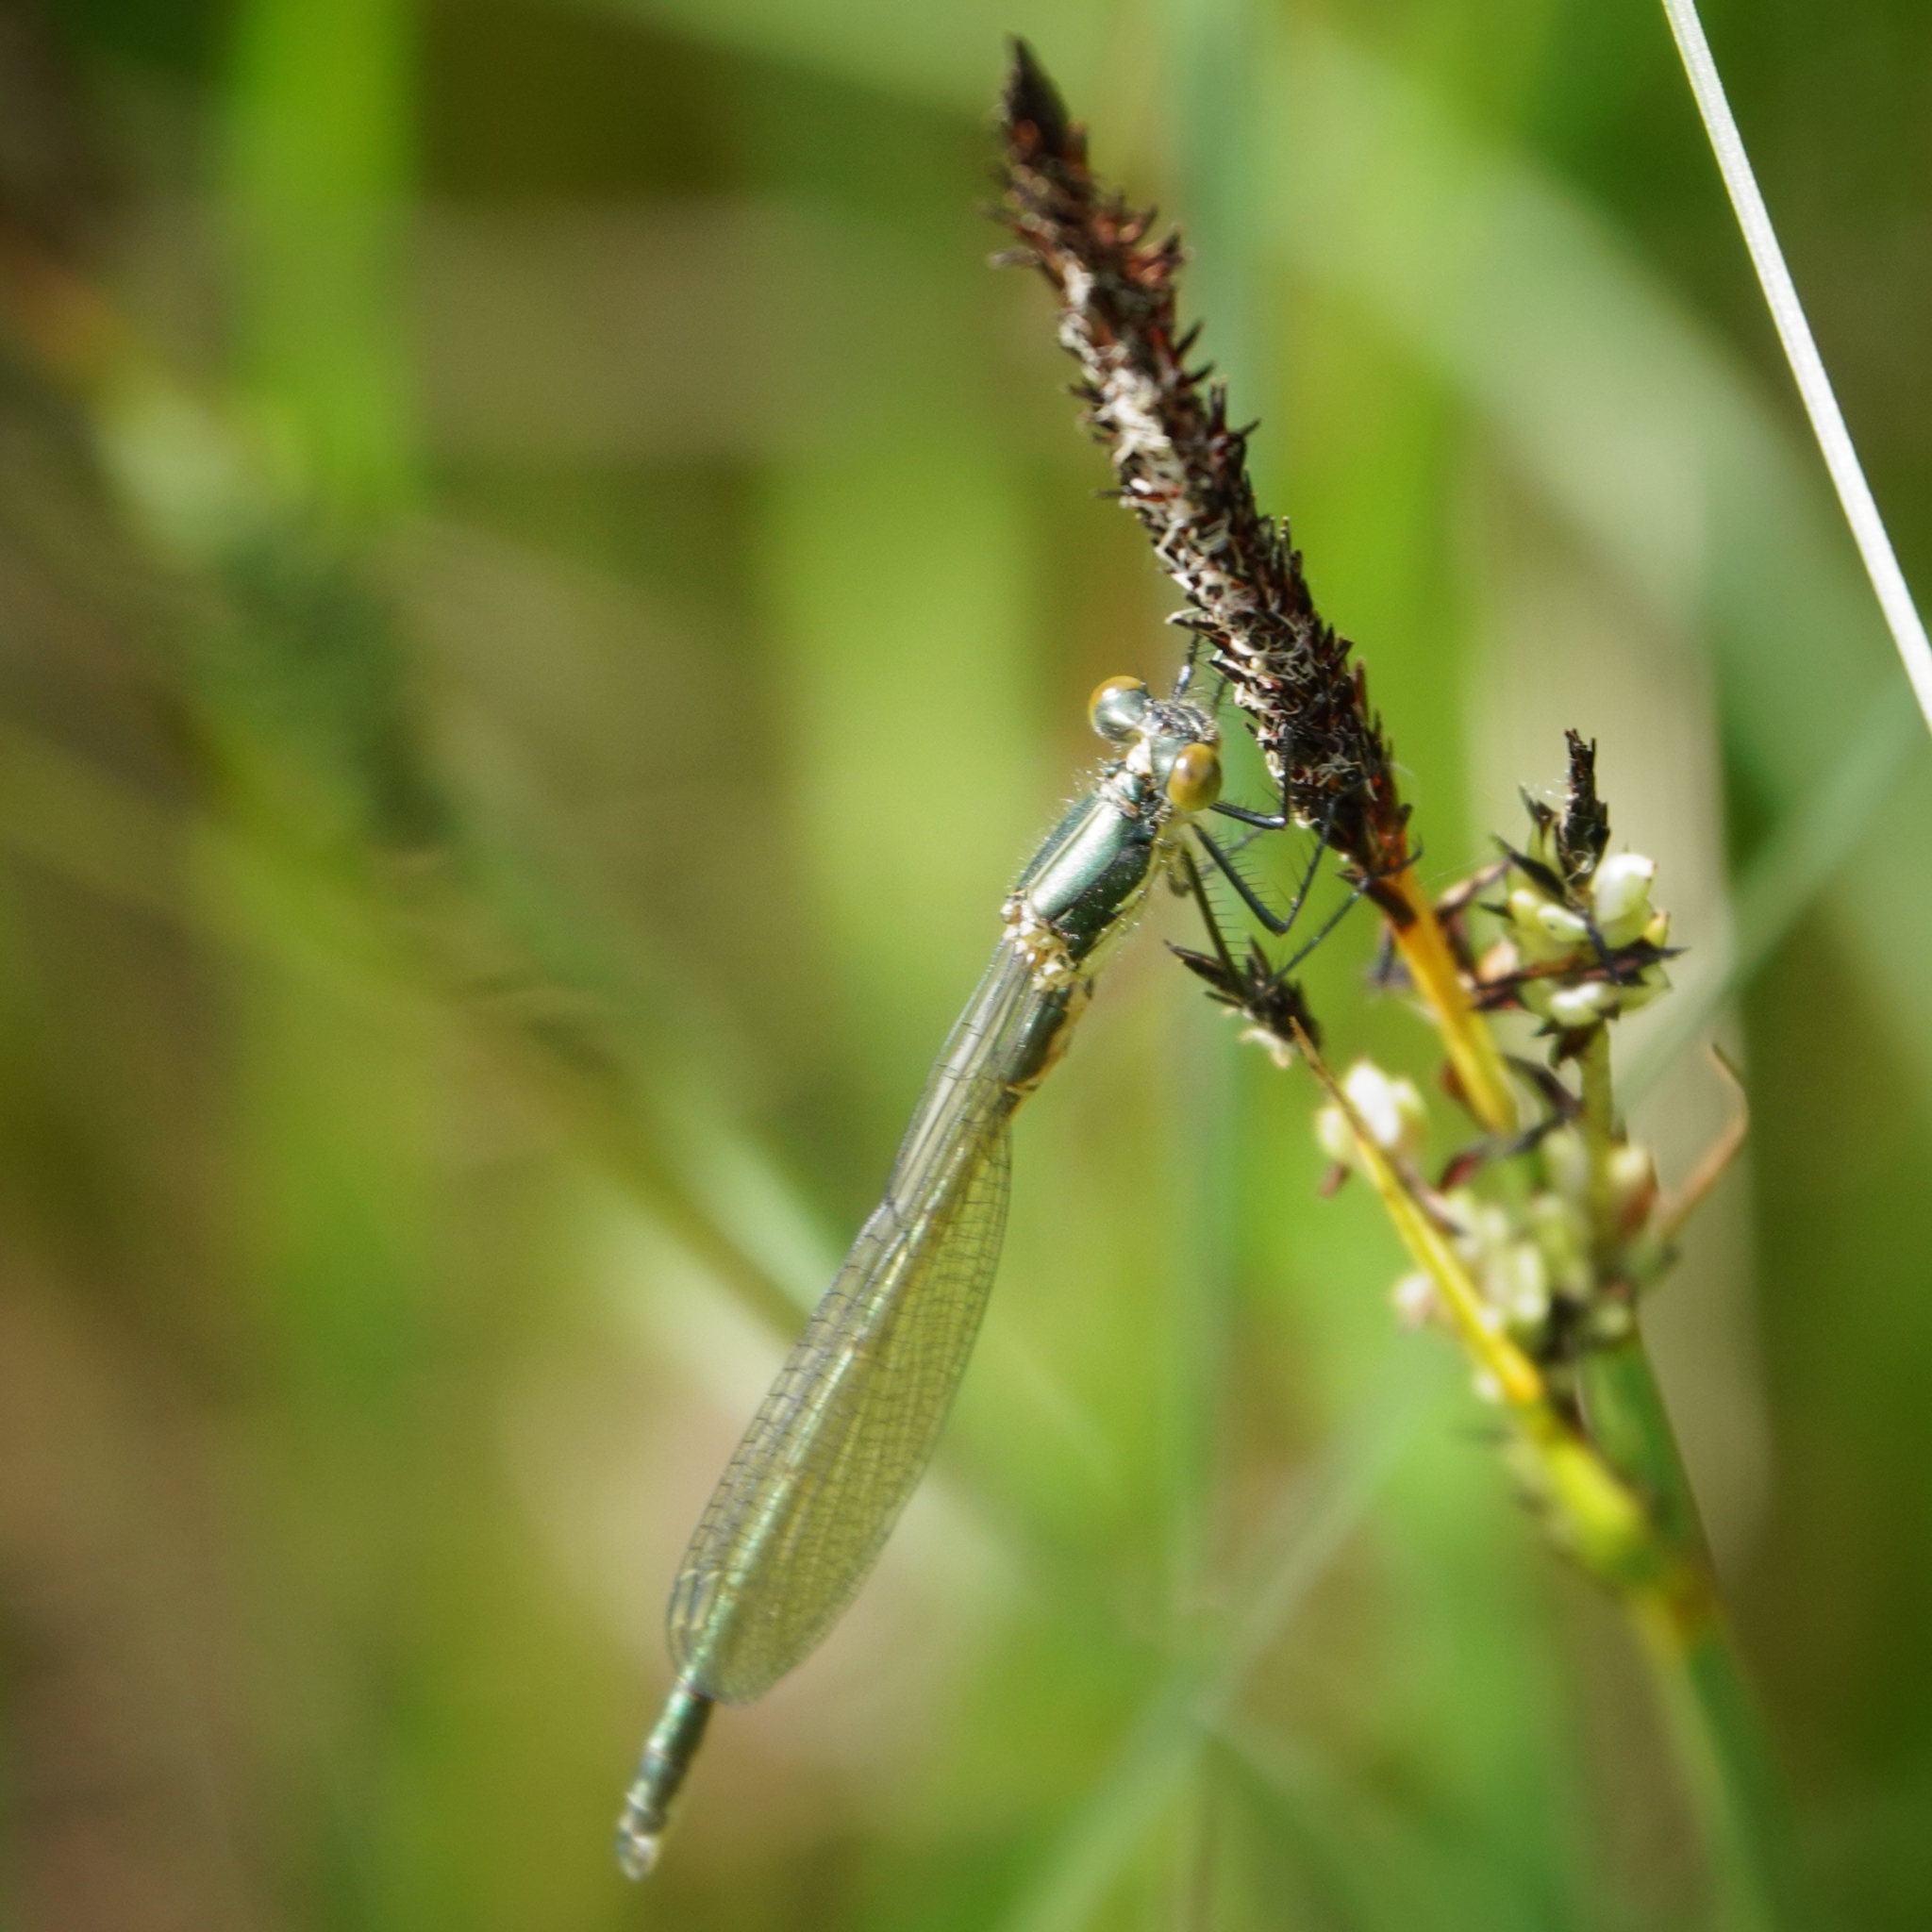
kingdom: Animalia
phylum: Arthropoda
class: Insecta
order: Odonata
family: Lestidae
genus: Lestes
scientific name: Lestes dryas
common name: Scarce emerald damselfly
